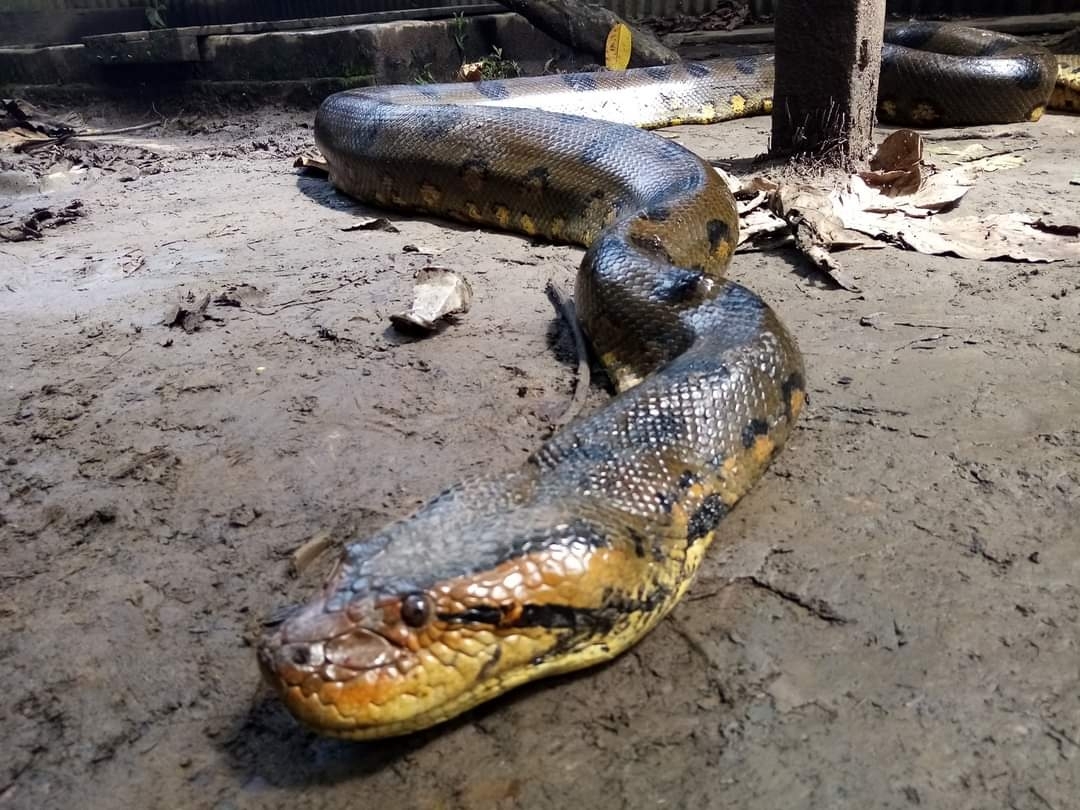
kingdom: Animalia
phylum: Chordata
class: Squamata
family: Boidae
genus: Eunectes
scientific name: Eunectes murinus
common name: Anaconda
